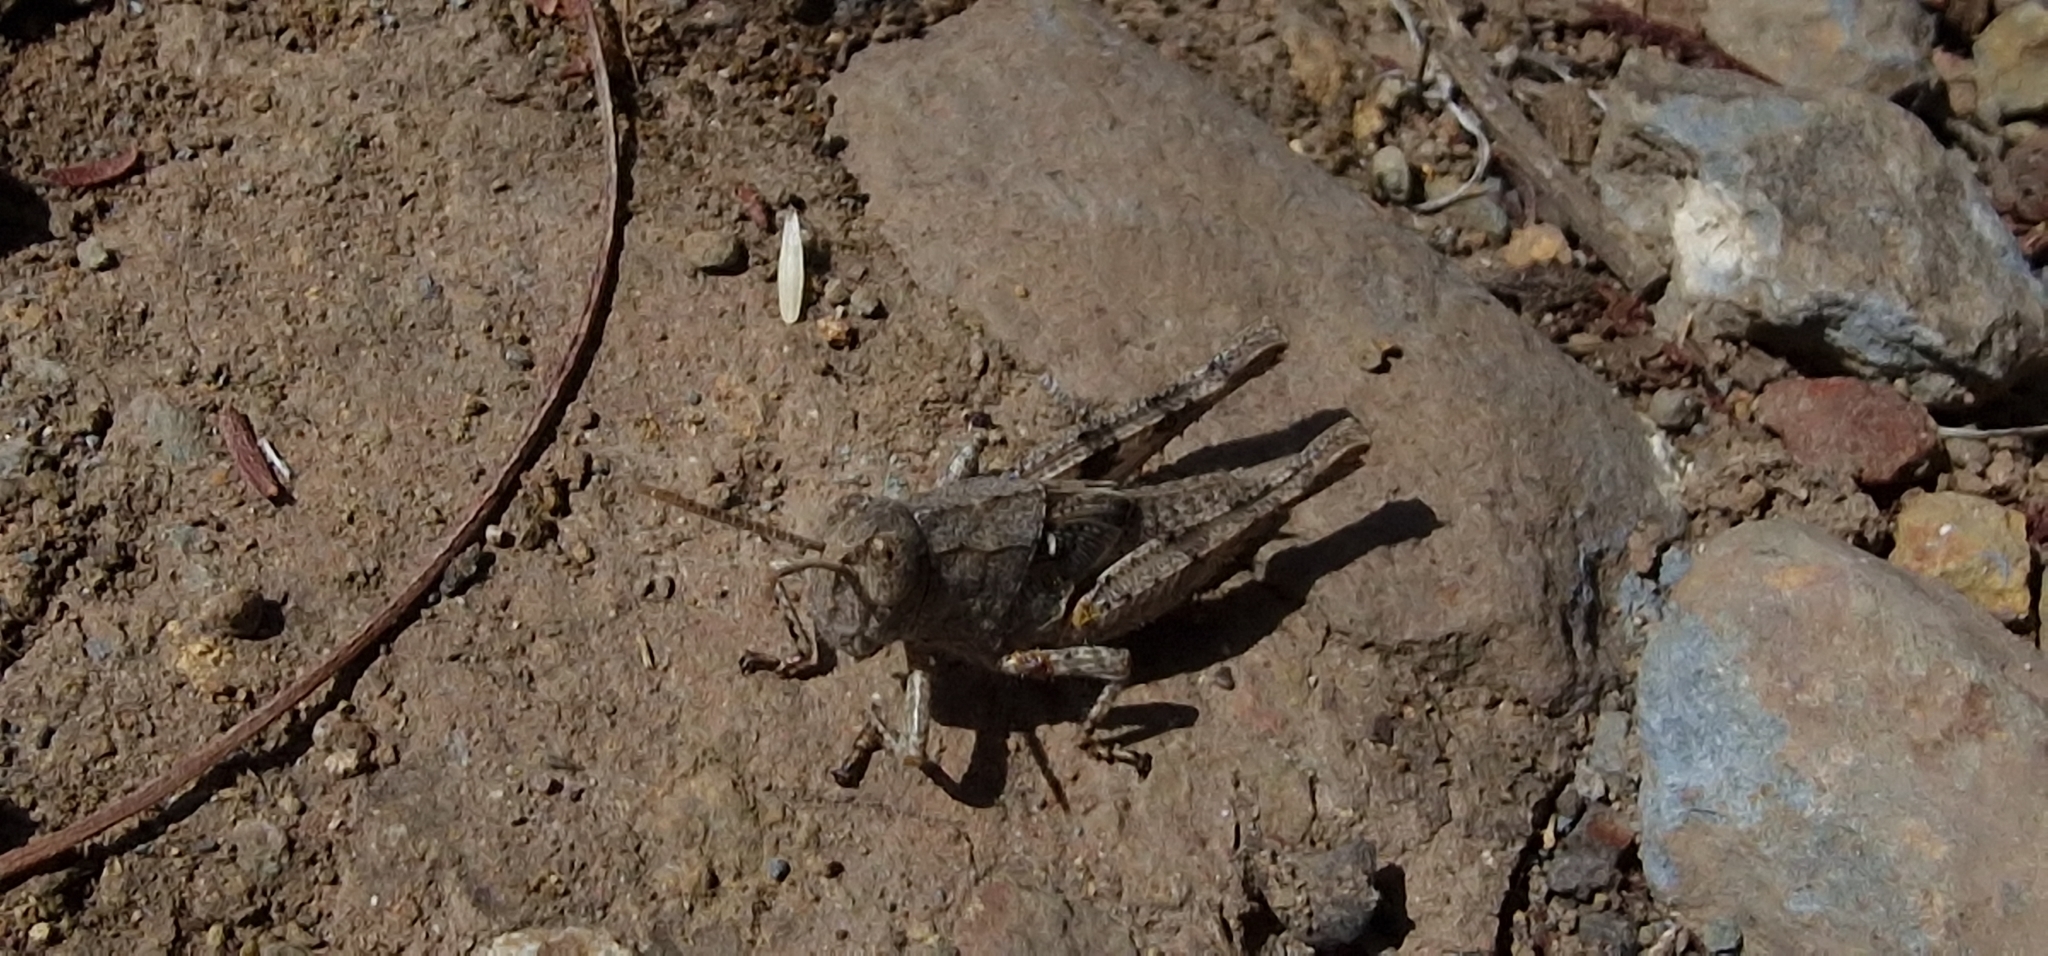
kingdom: Animalia
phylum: Arthropoda
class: Insecta
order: Orthoptera
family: Acrididae
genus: Calliptamus
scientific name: Calliptamus madeirae
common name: Madeira pincer grasshopper
